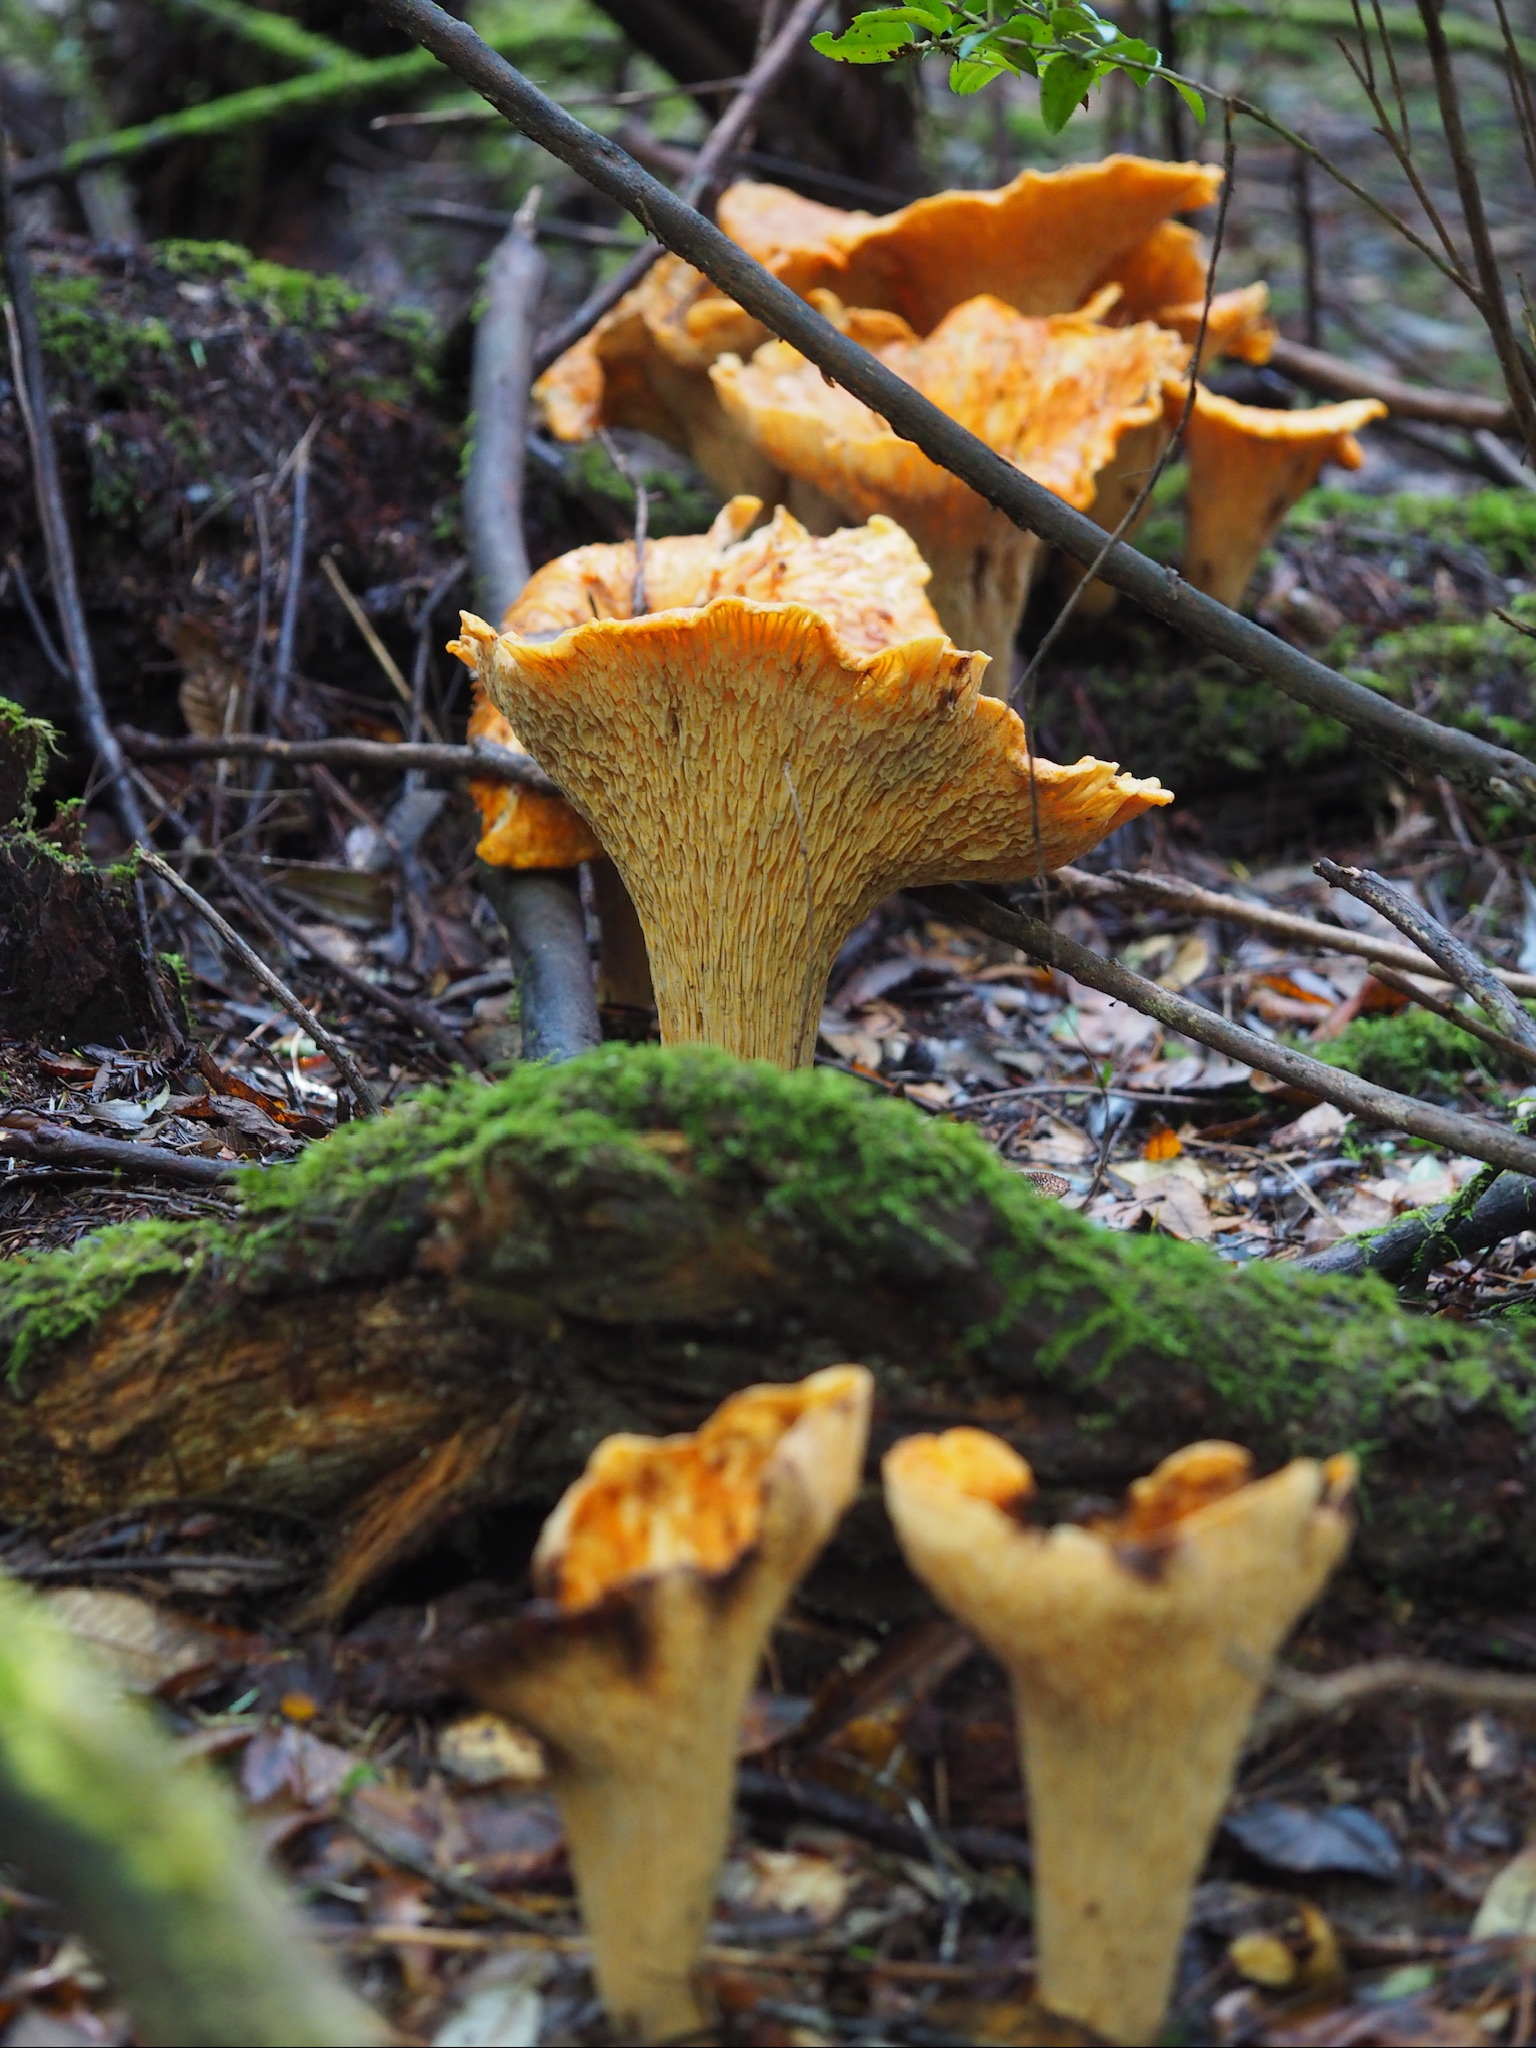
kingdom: Fungi
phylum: Basidiomycota
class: Agaricomycetes
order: Gomphales
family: Gomphaceae
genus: Turbinellus
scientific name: Turbinellus floccosus
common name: Scaly chanterelle
